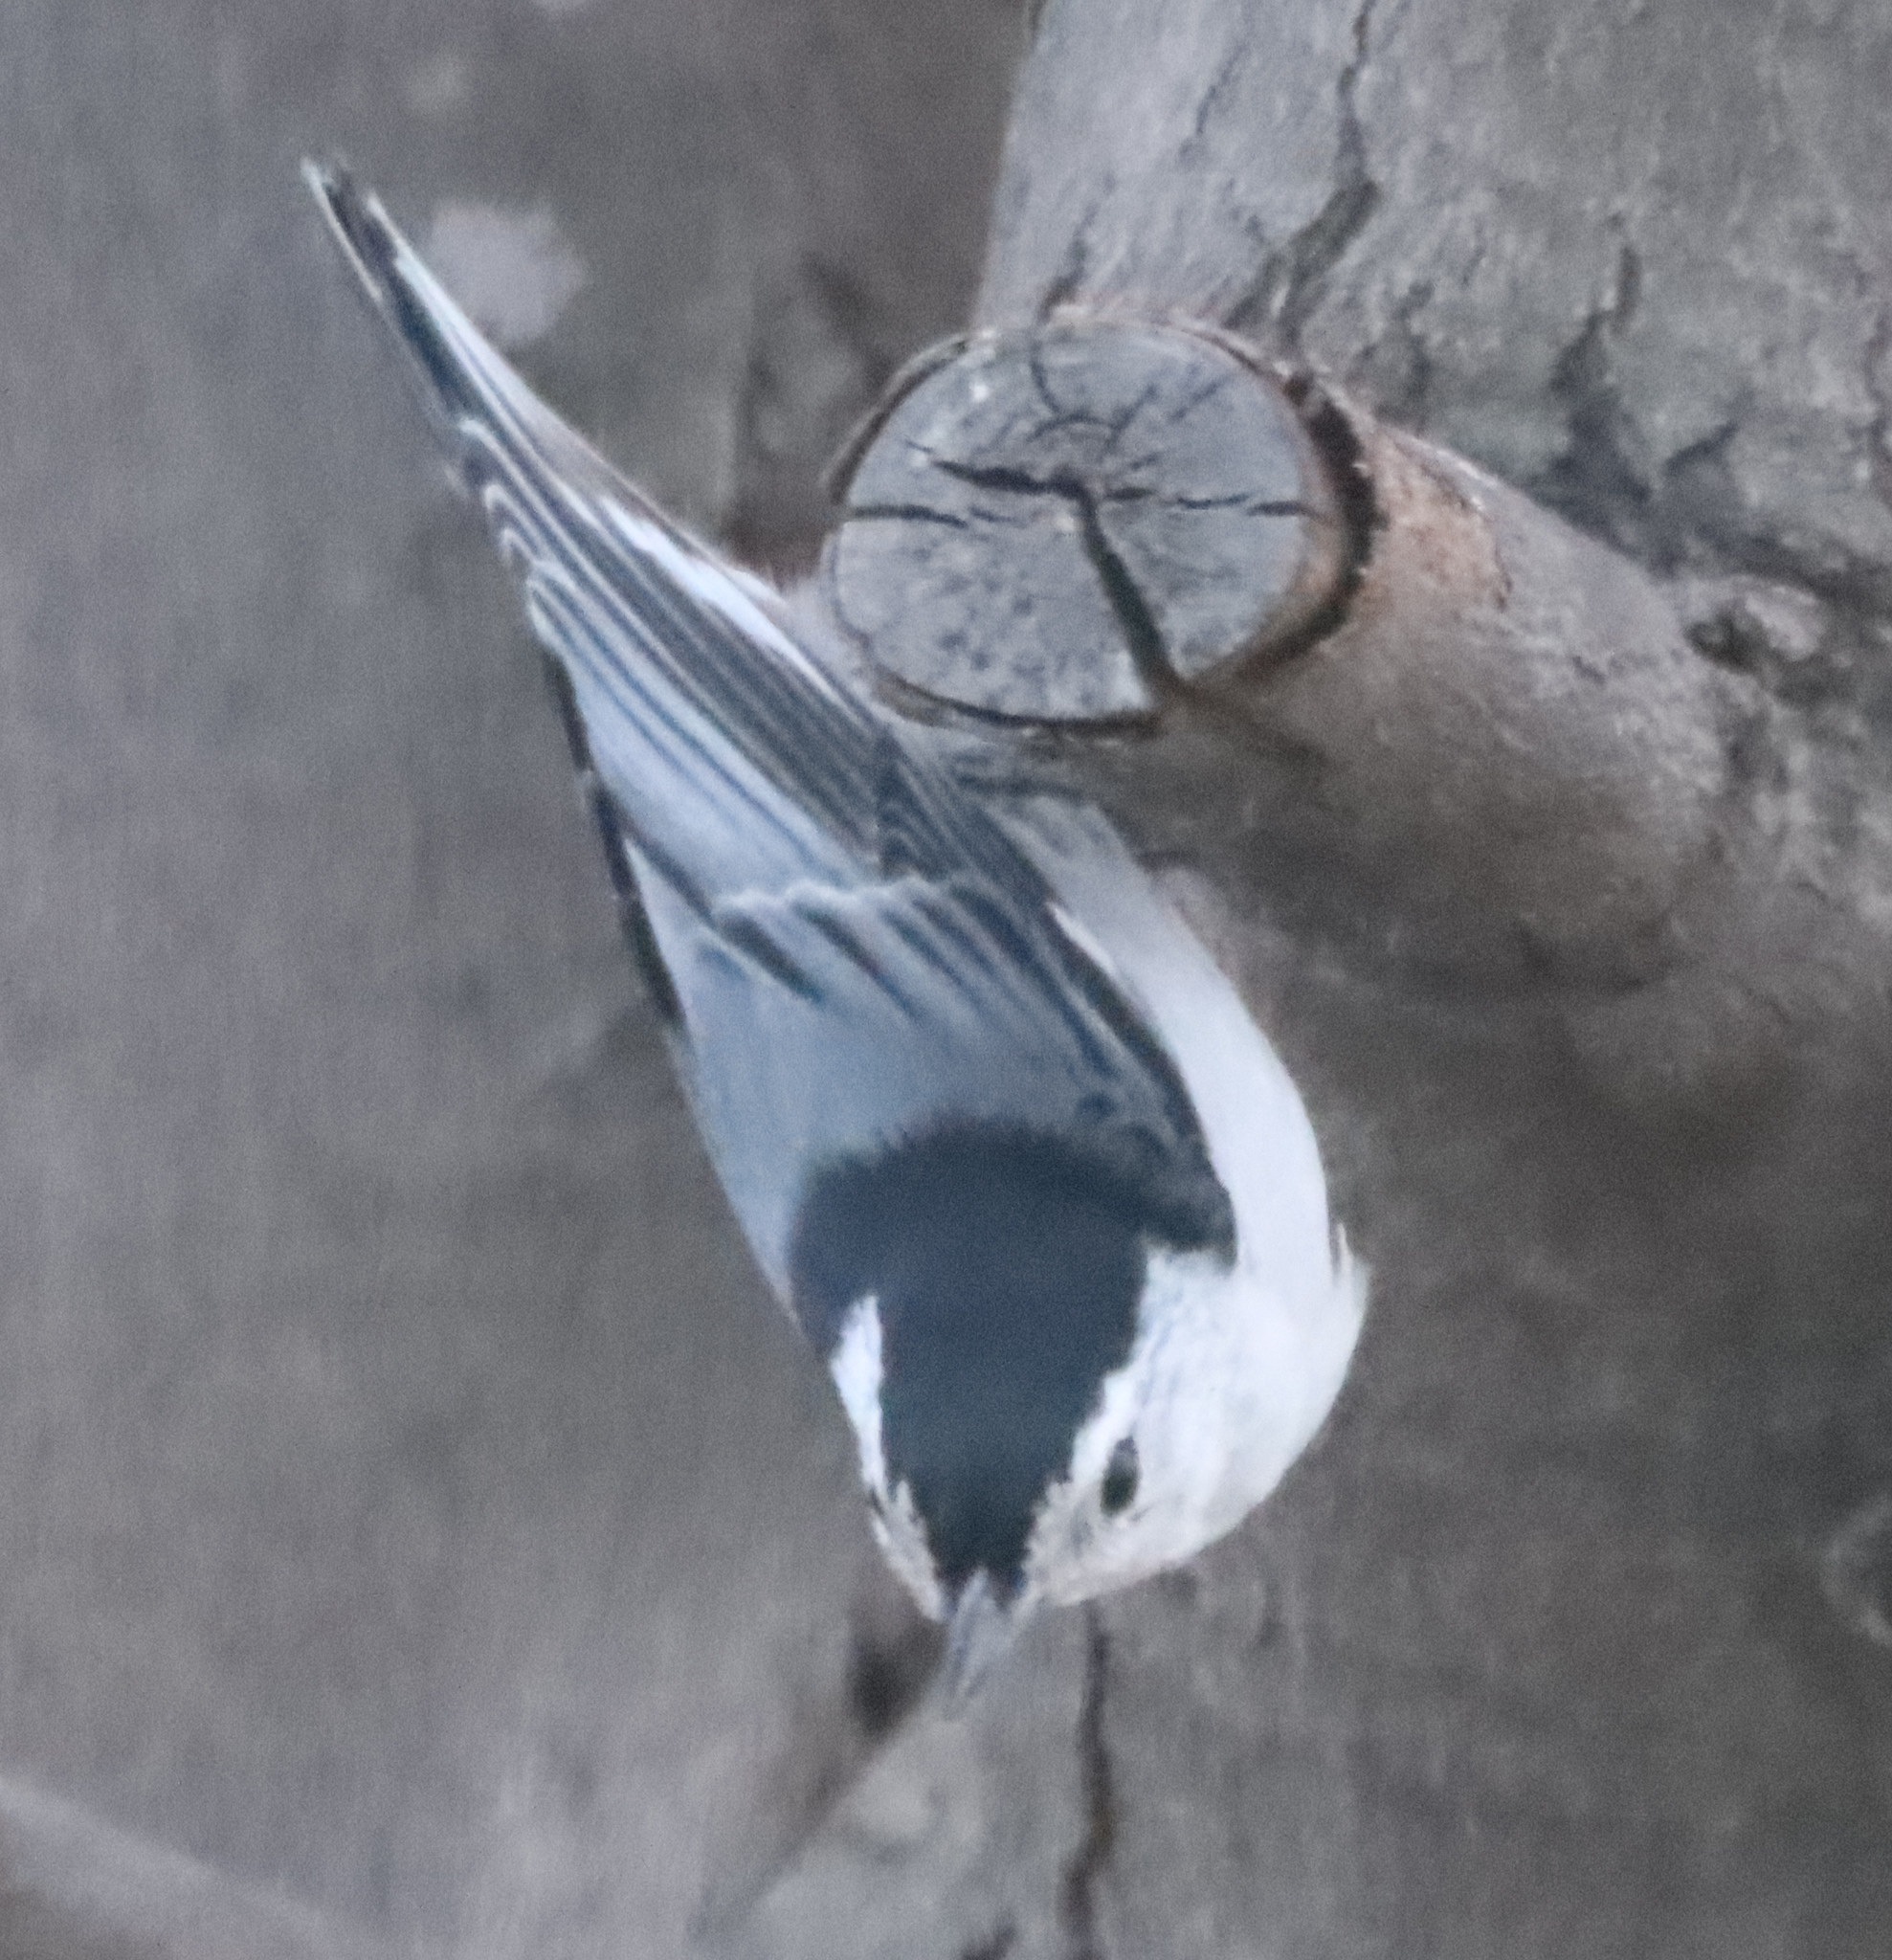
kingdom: Animalia
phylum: Chordata
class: Aves
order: Passeriformes
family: Sittidae
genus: Sitta
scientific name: Sitta carolinensis
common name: White-breasted nuthatch
